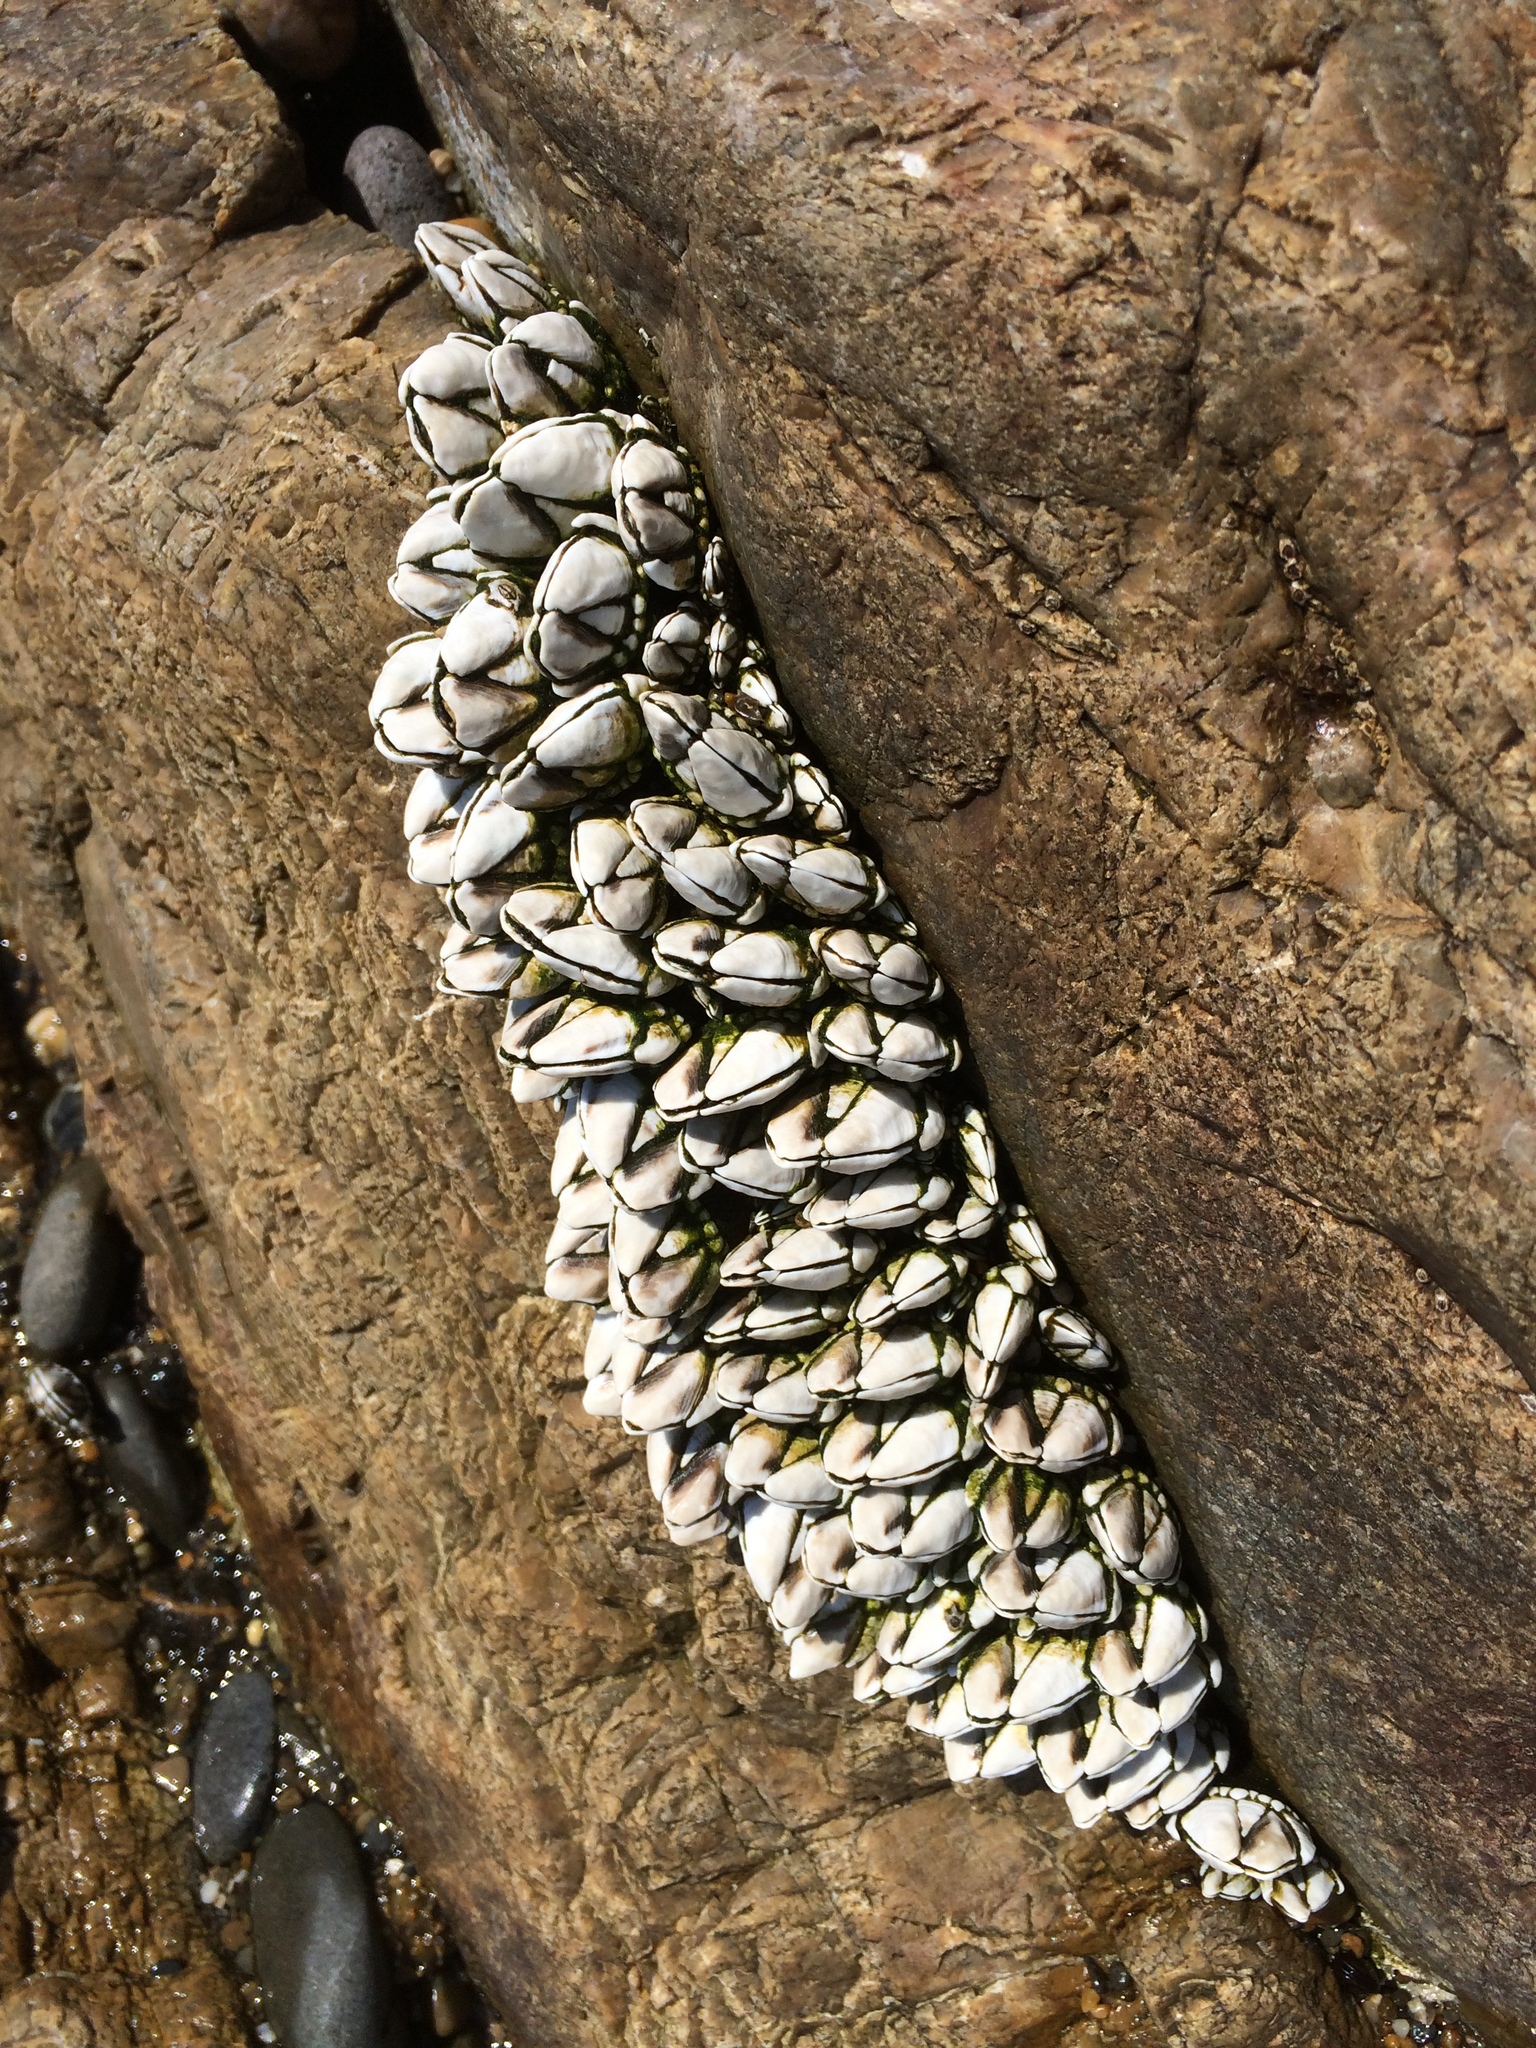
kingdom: Animalia
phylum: Arthropoda
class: Maxillopoda
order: Pedunculata
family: Pollicipedidae
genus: Capitulum
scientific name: Capitulum mitella
